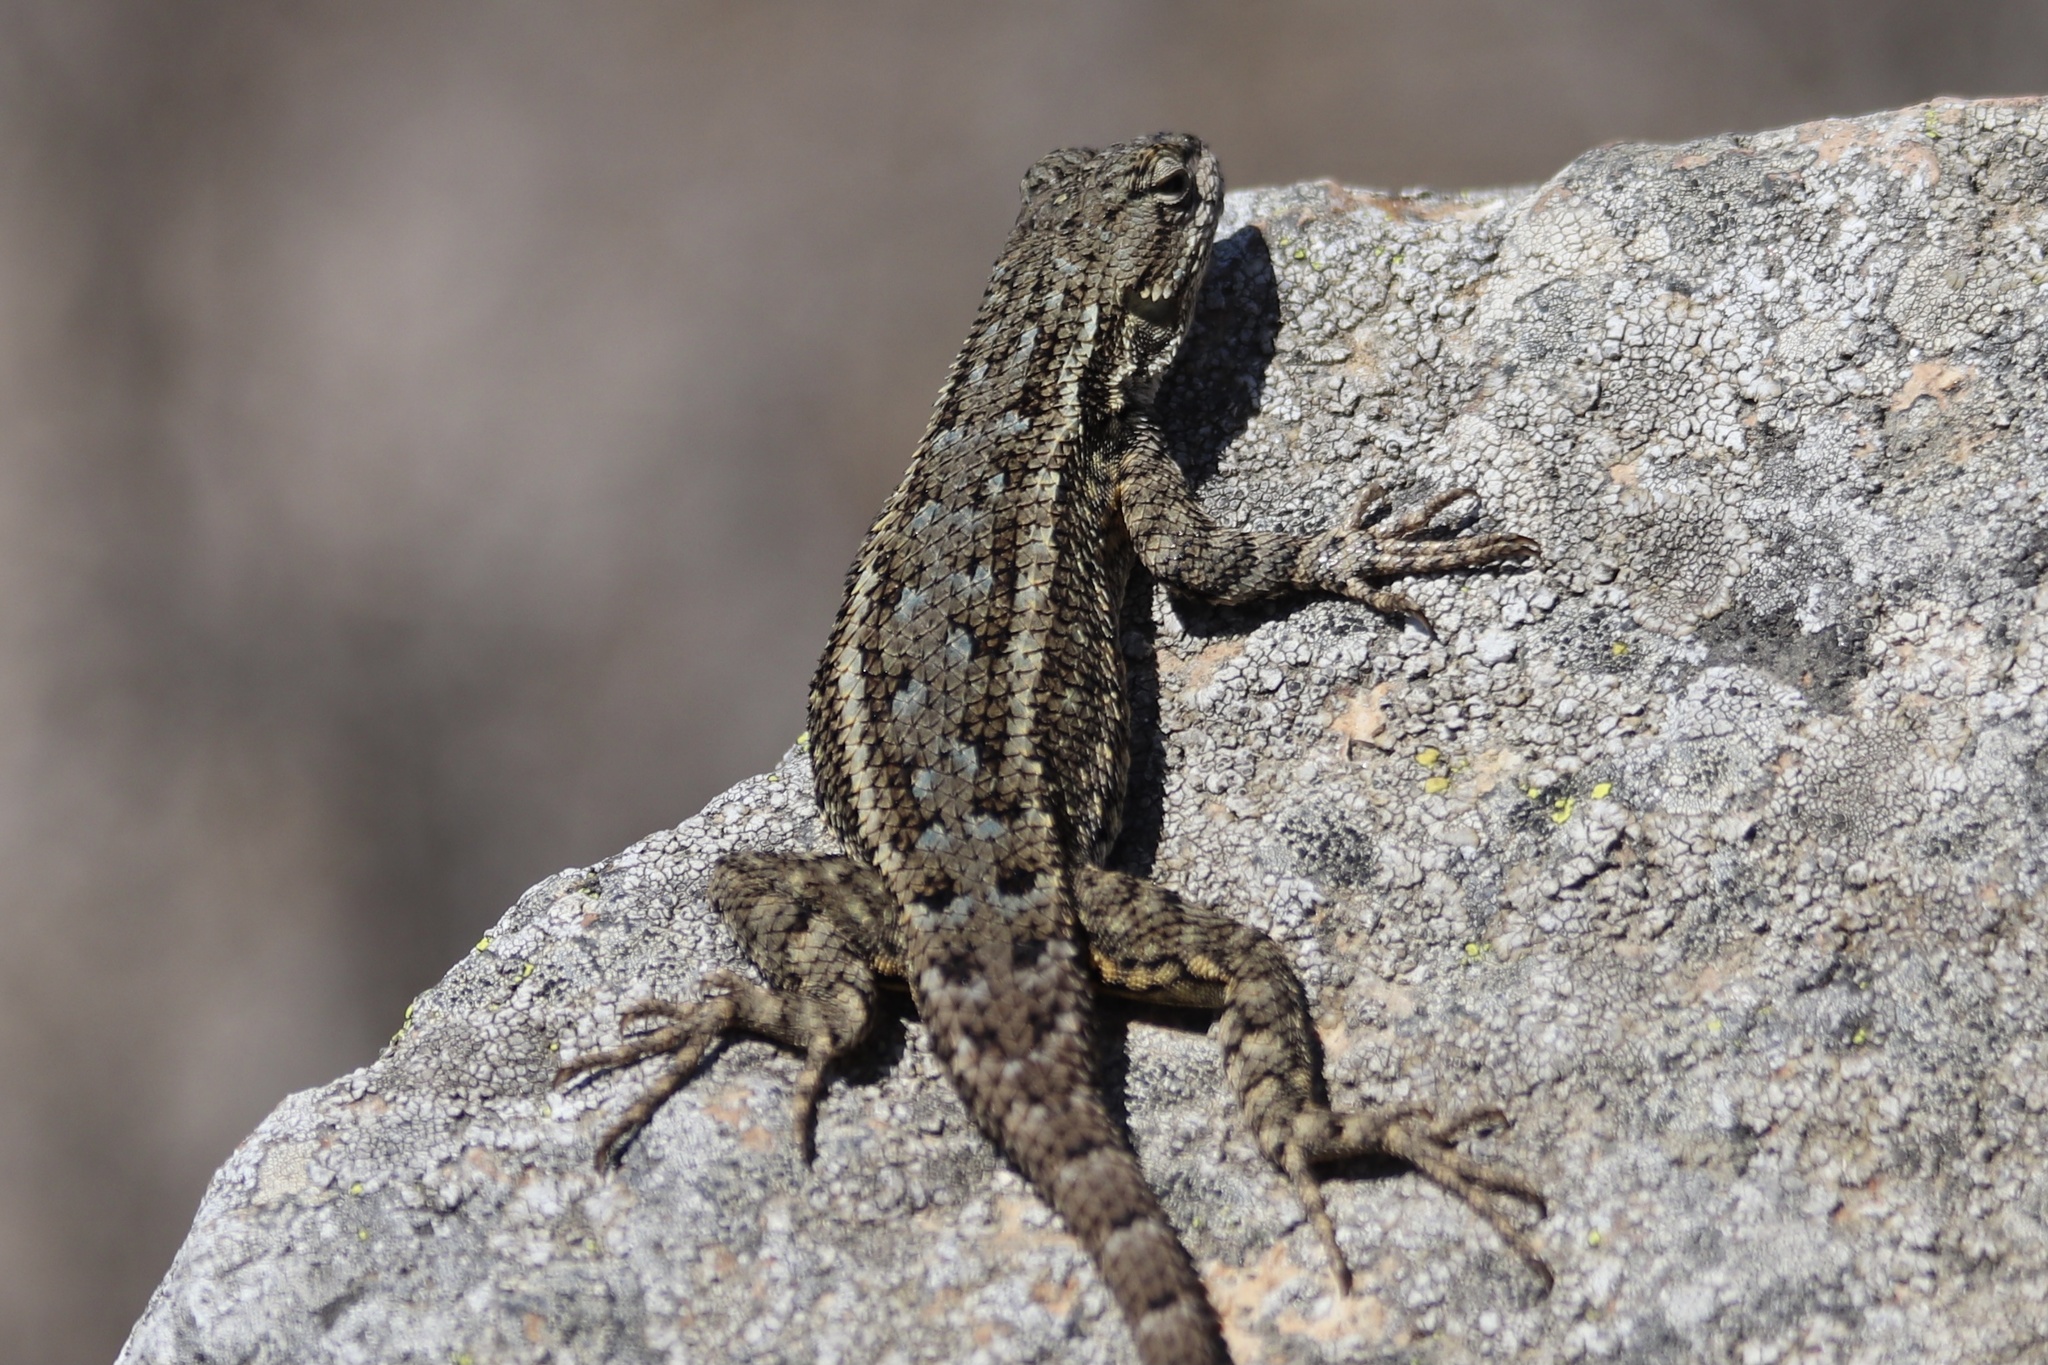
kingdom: Animalia
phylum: Chordata
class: Squamata
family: Phrynosomatidae
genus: Sceloporus
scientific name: Sceloporus occidentalis
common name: Western fence lizard
